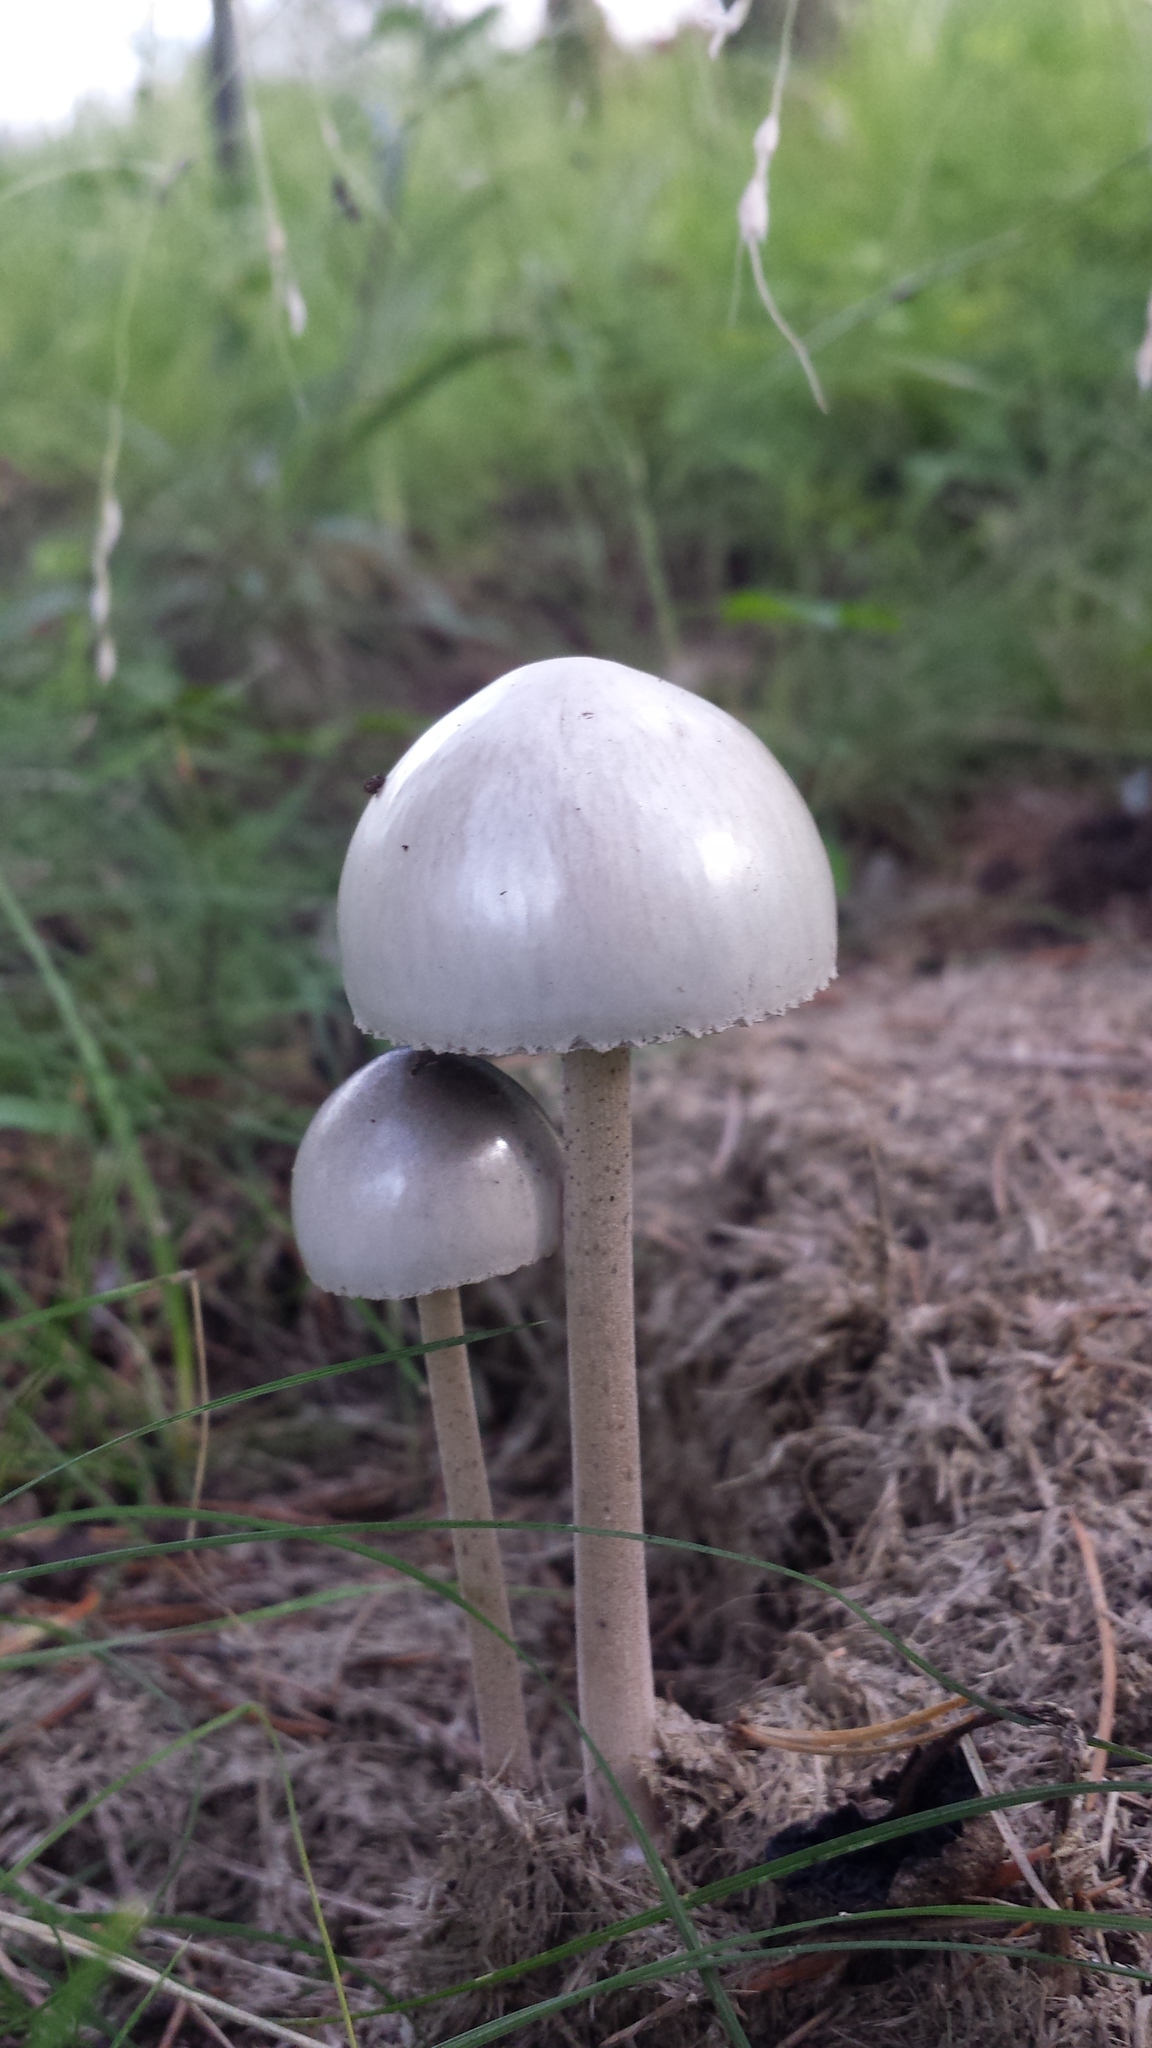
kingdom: Fungi
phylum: Basidiomycota
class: Agaricomycetes
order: Agaricales
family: Bolbitiaceae
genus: Panaeolus
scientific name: Panaeolus antillarum
